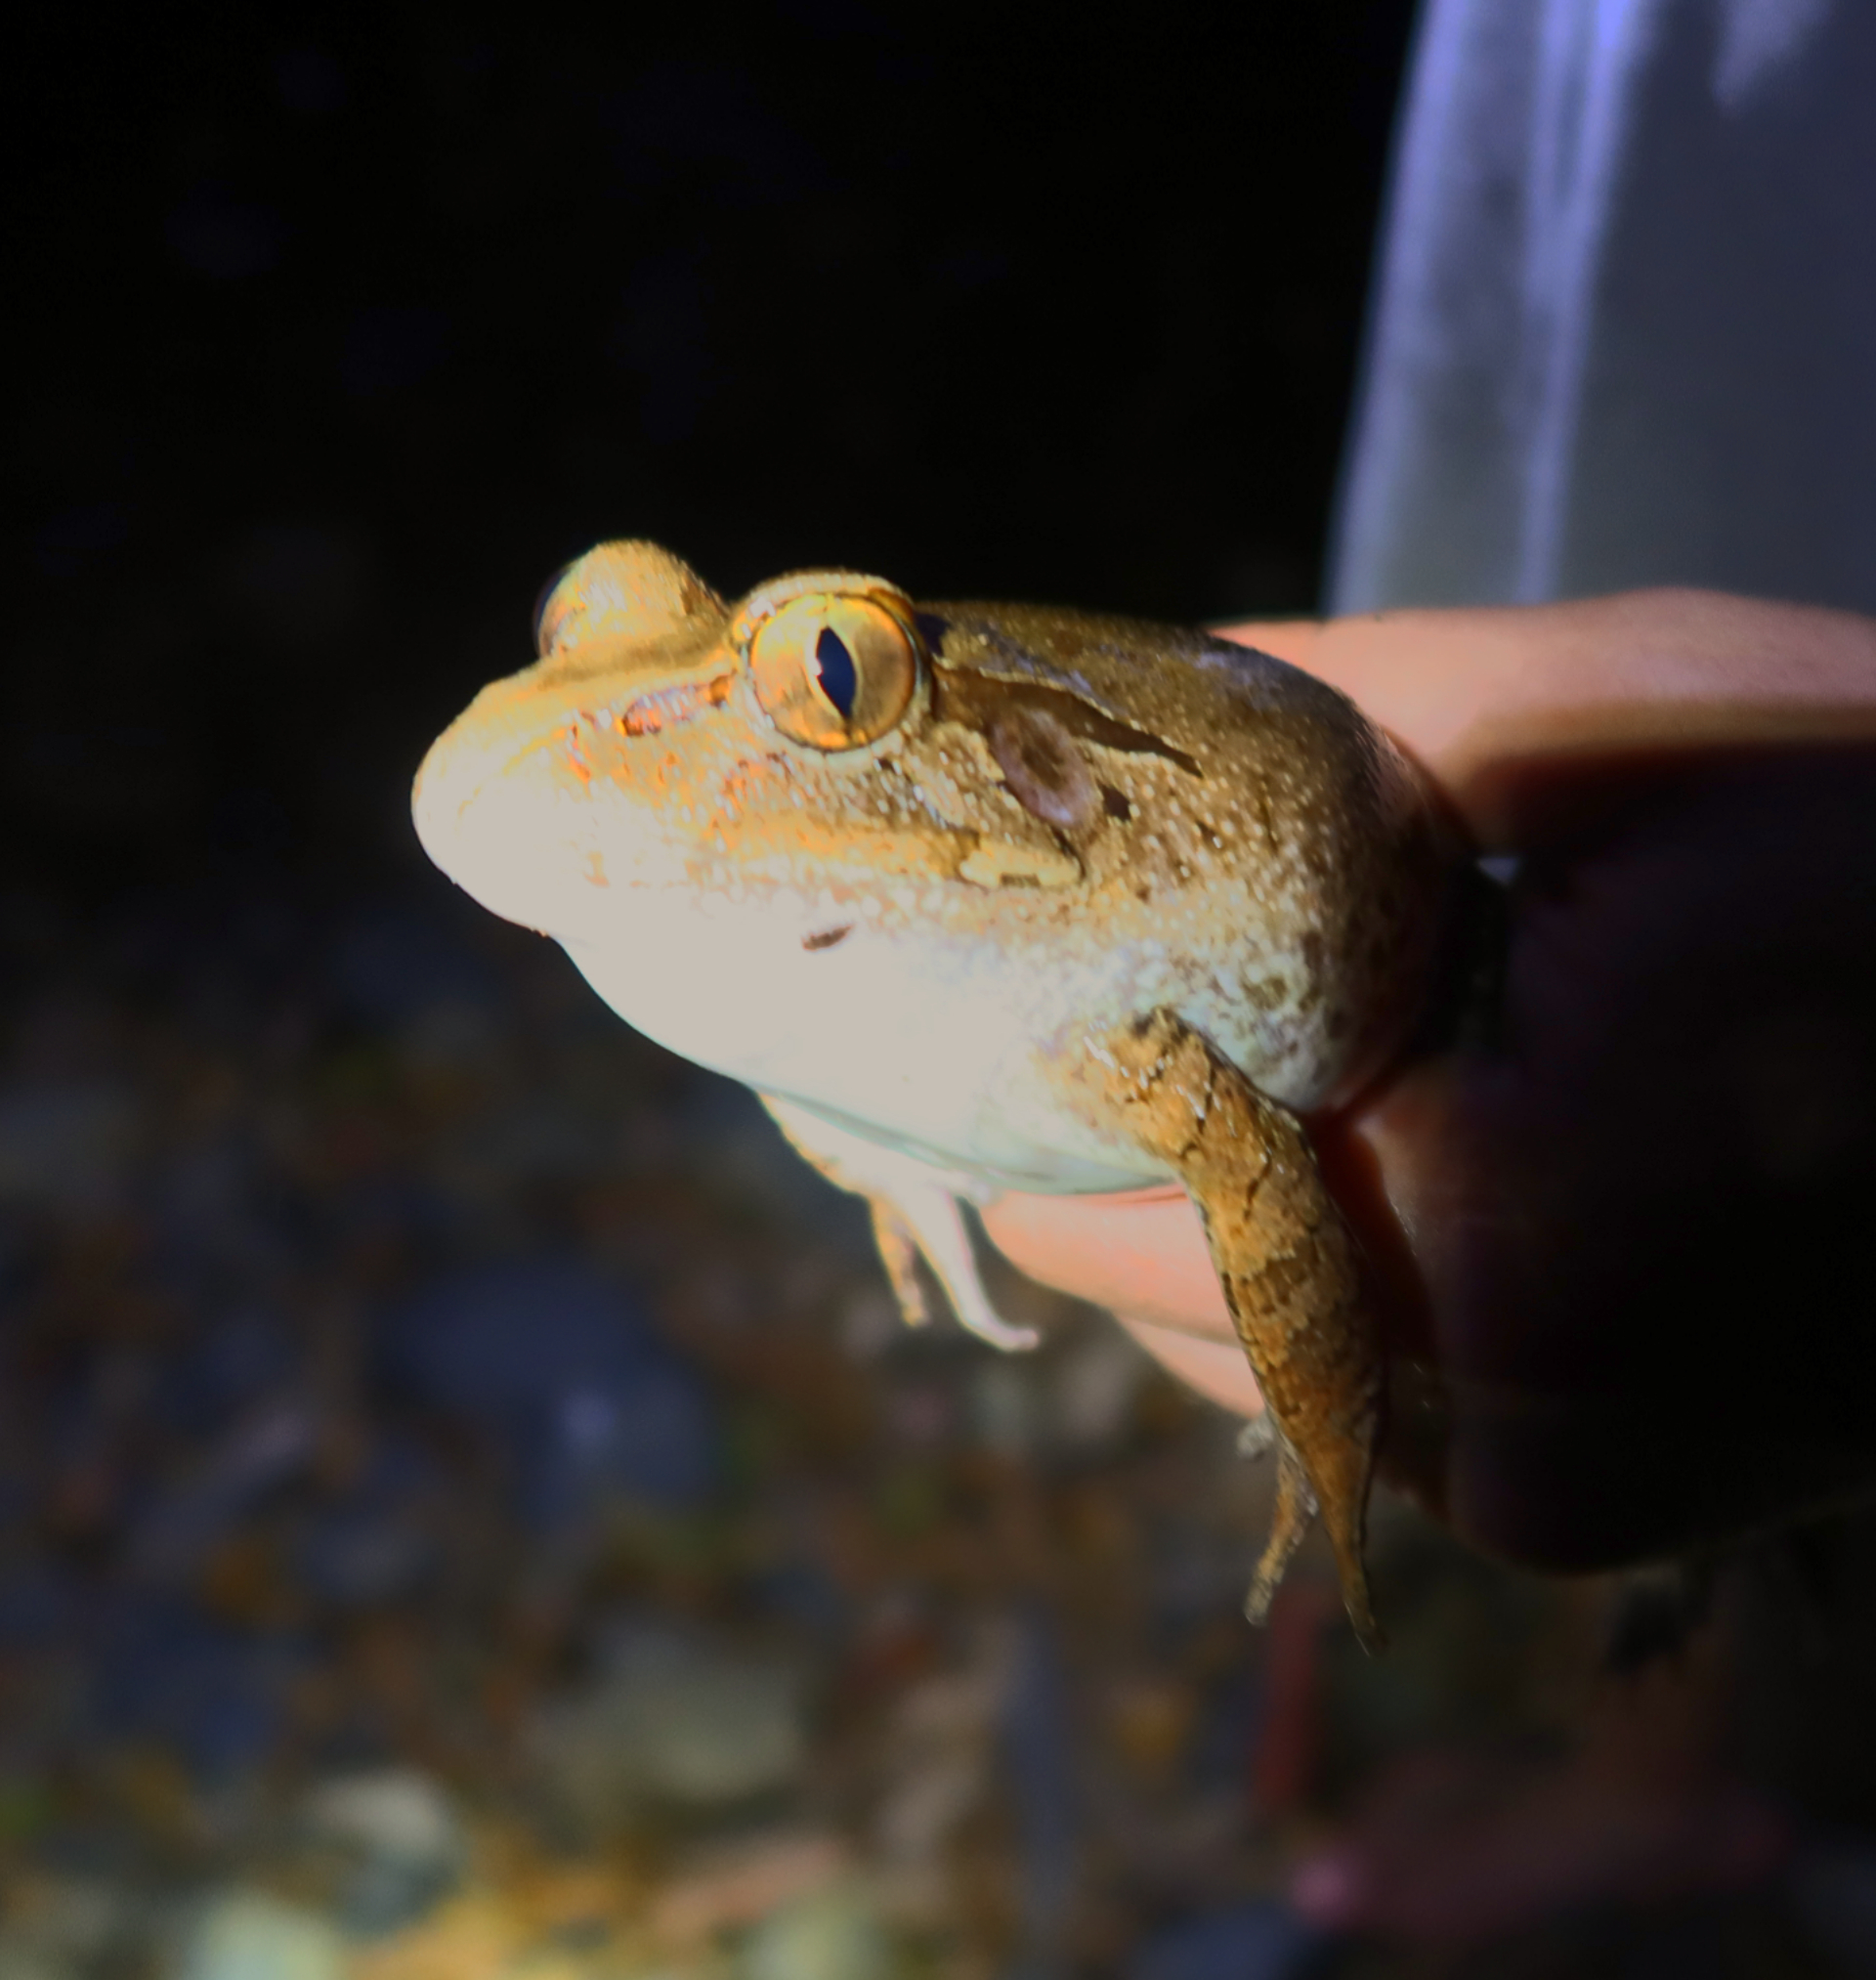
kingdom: Animalia
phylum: Chordata
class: Amphibia
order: Anura
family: Myobatrachidae
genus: Mixophyes
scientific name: Mixophyes iteratus
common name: Giant barred river-frog
